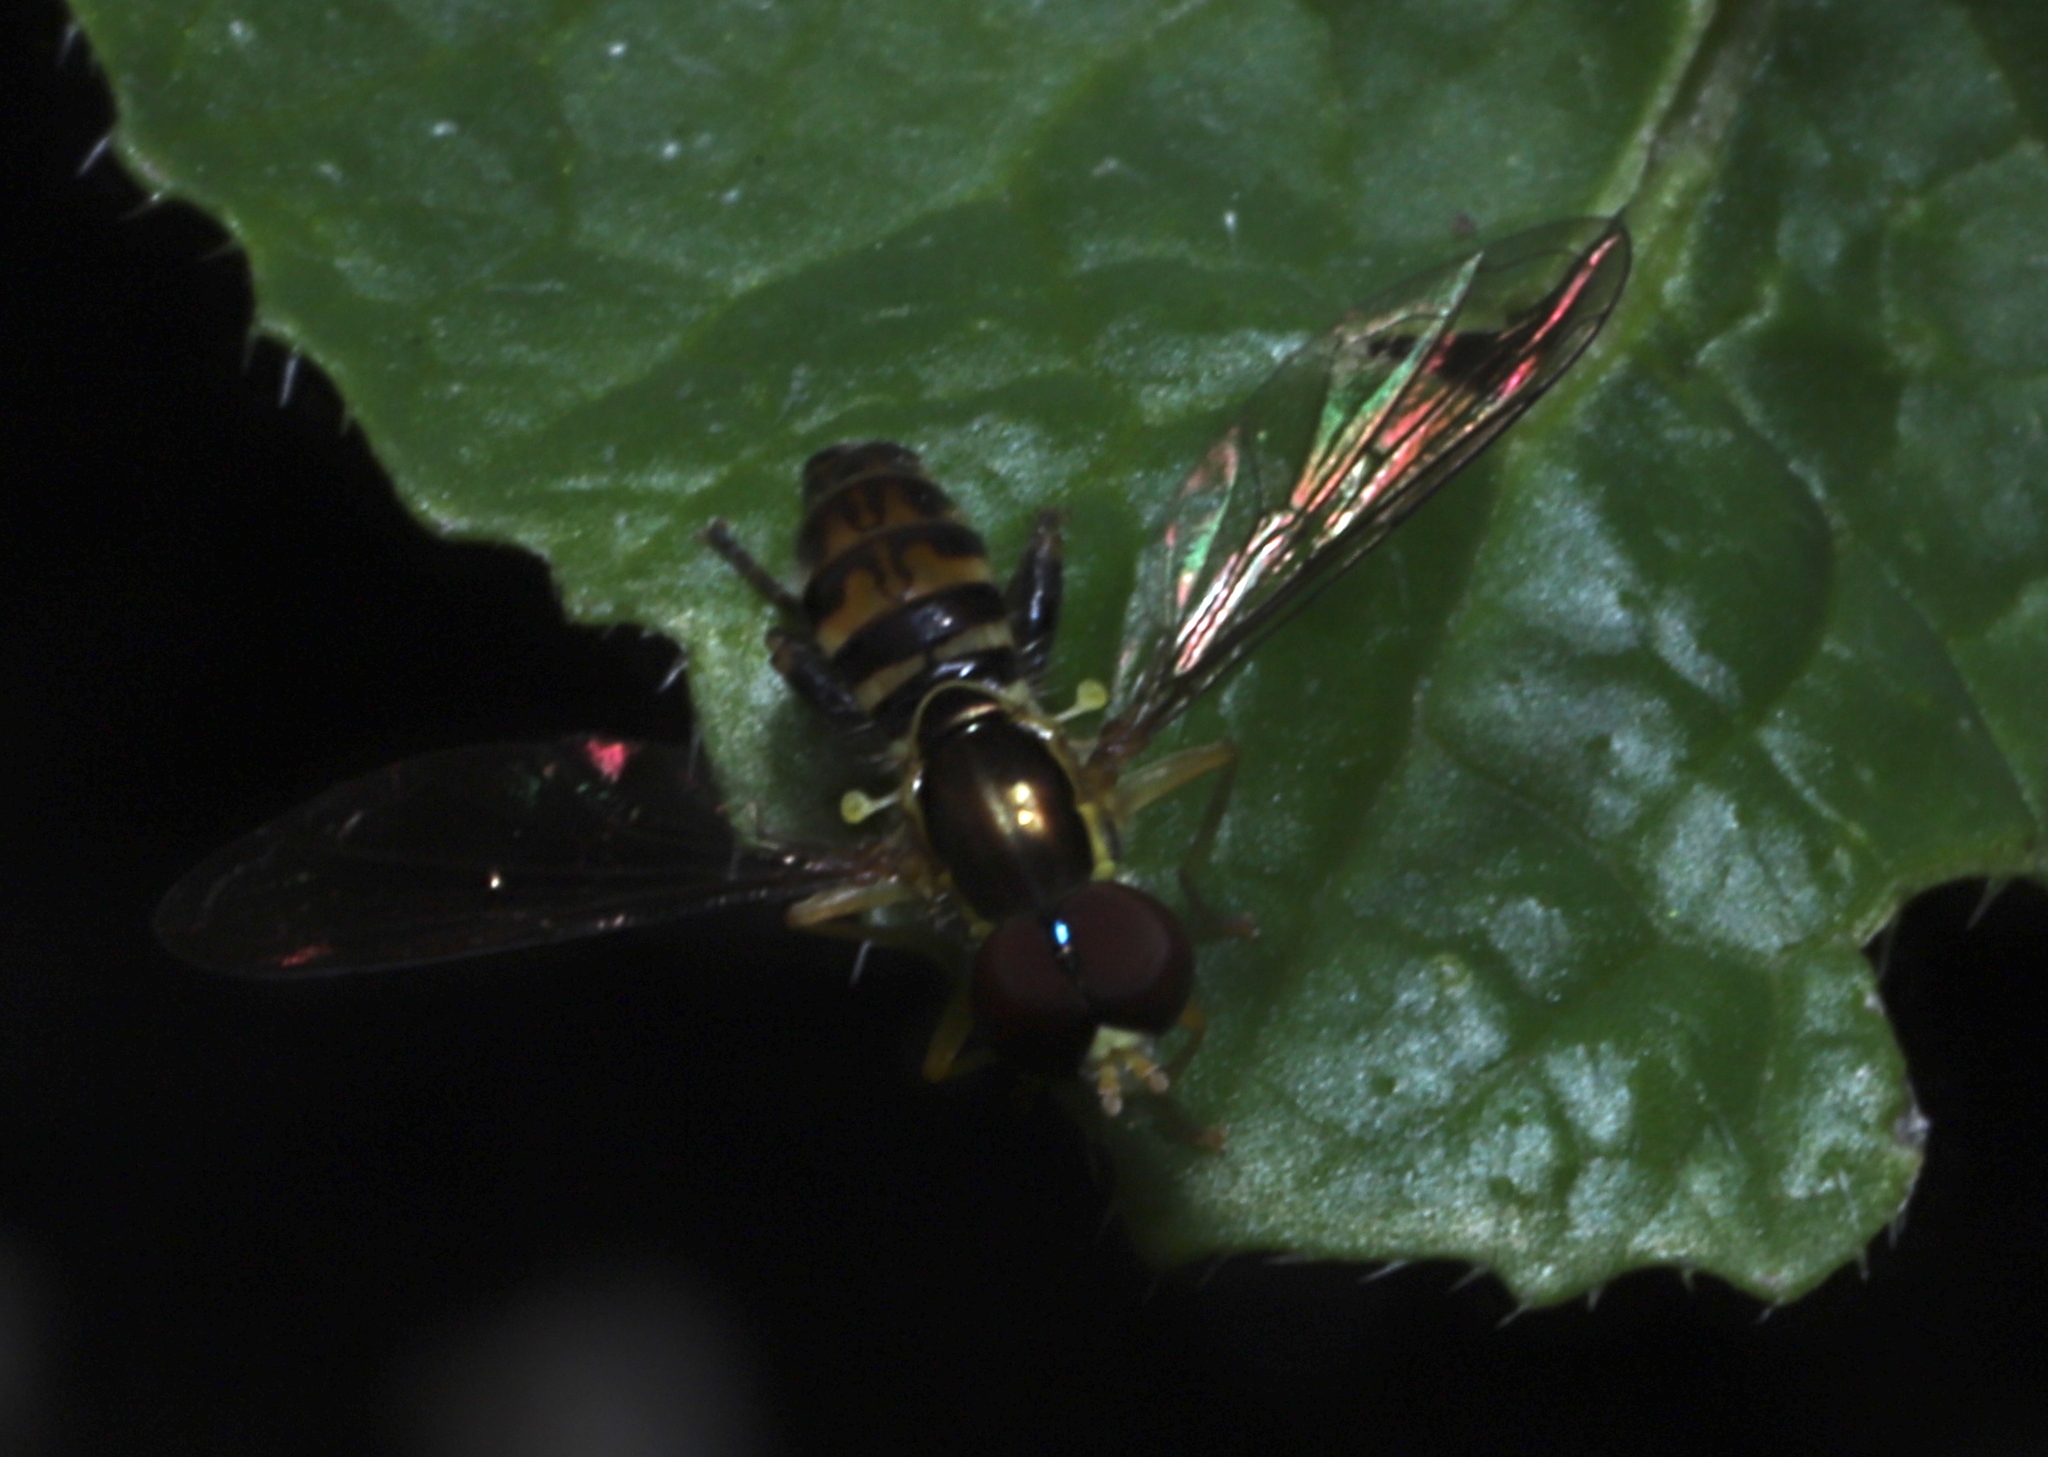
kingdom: Animalia
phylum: Arthropoda
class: Insecta
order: Diptera
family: Syrphidae
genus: Toxomerus
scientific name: Toxomerus geminatus
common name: Eastern calligrapher
